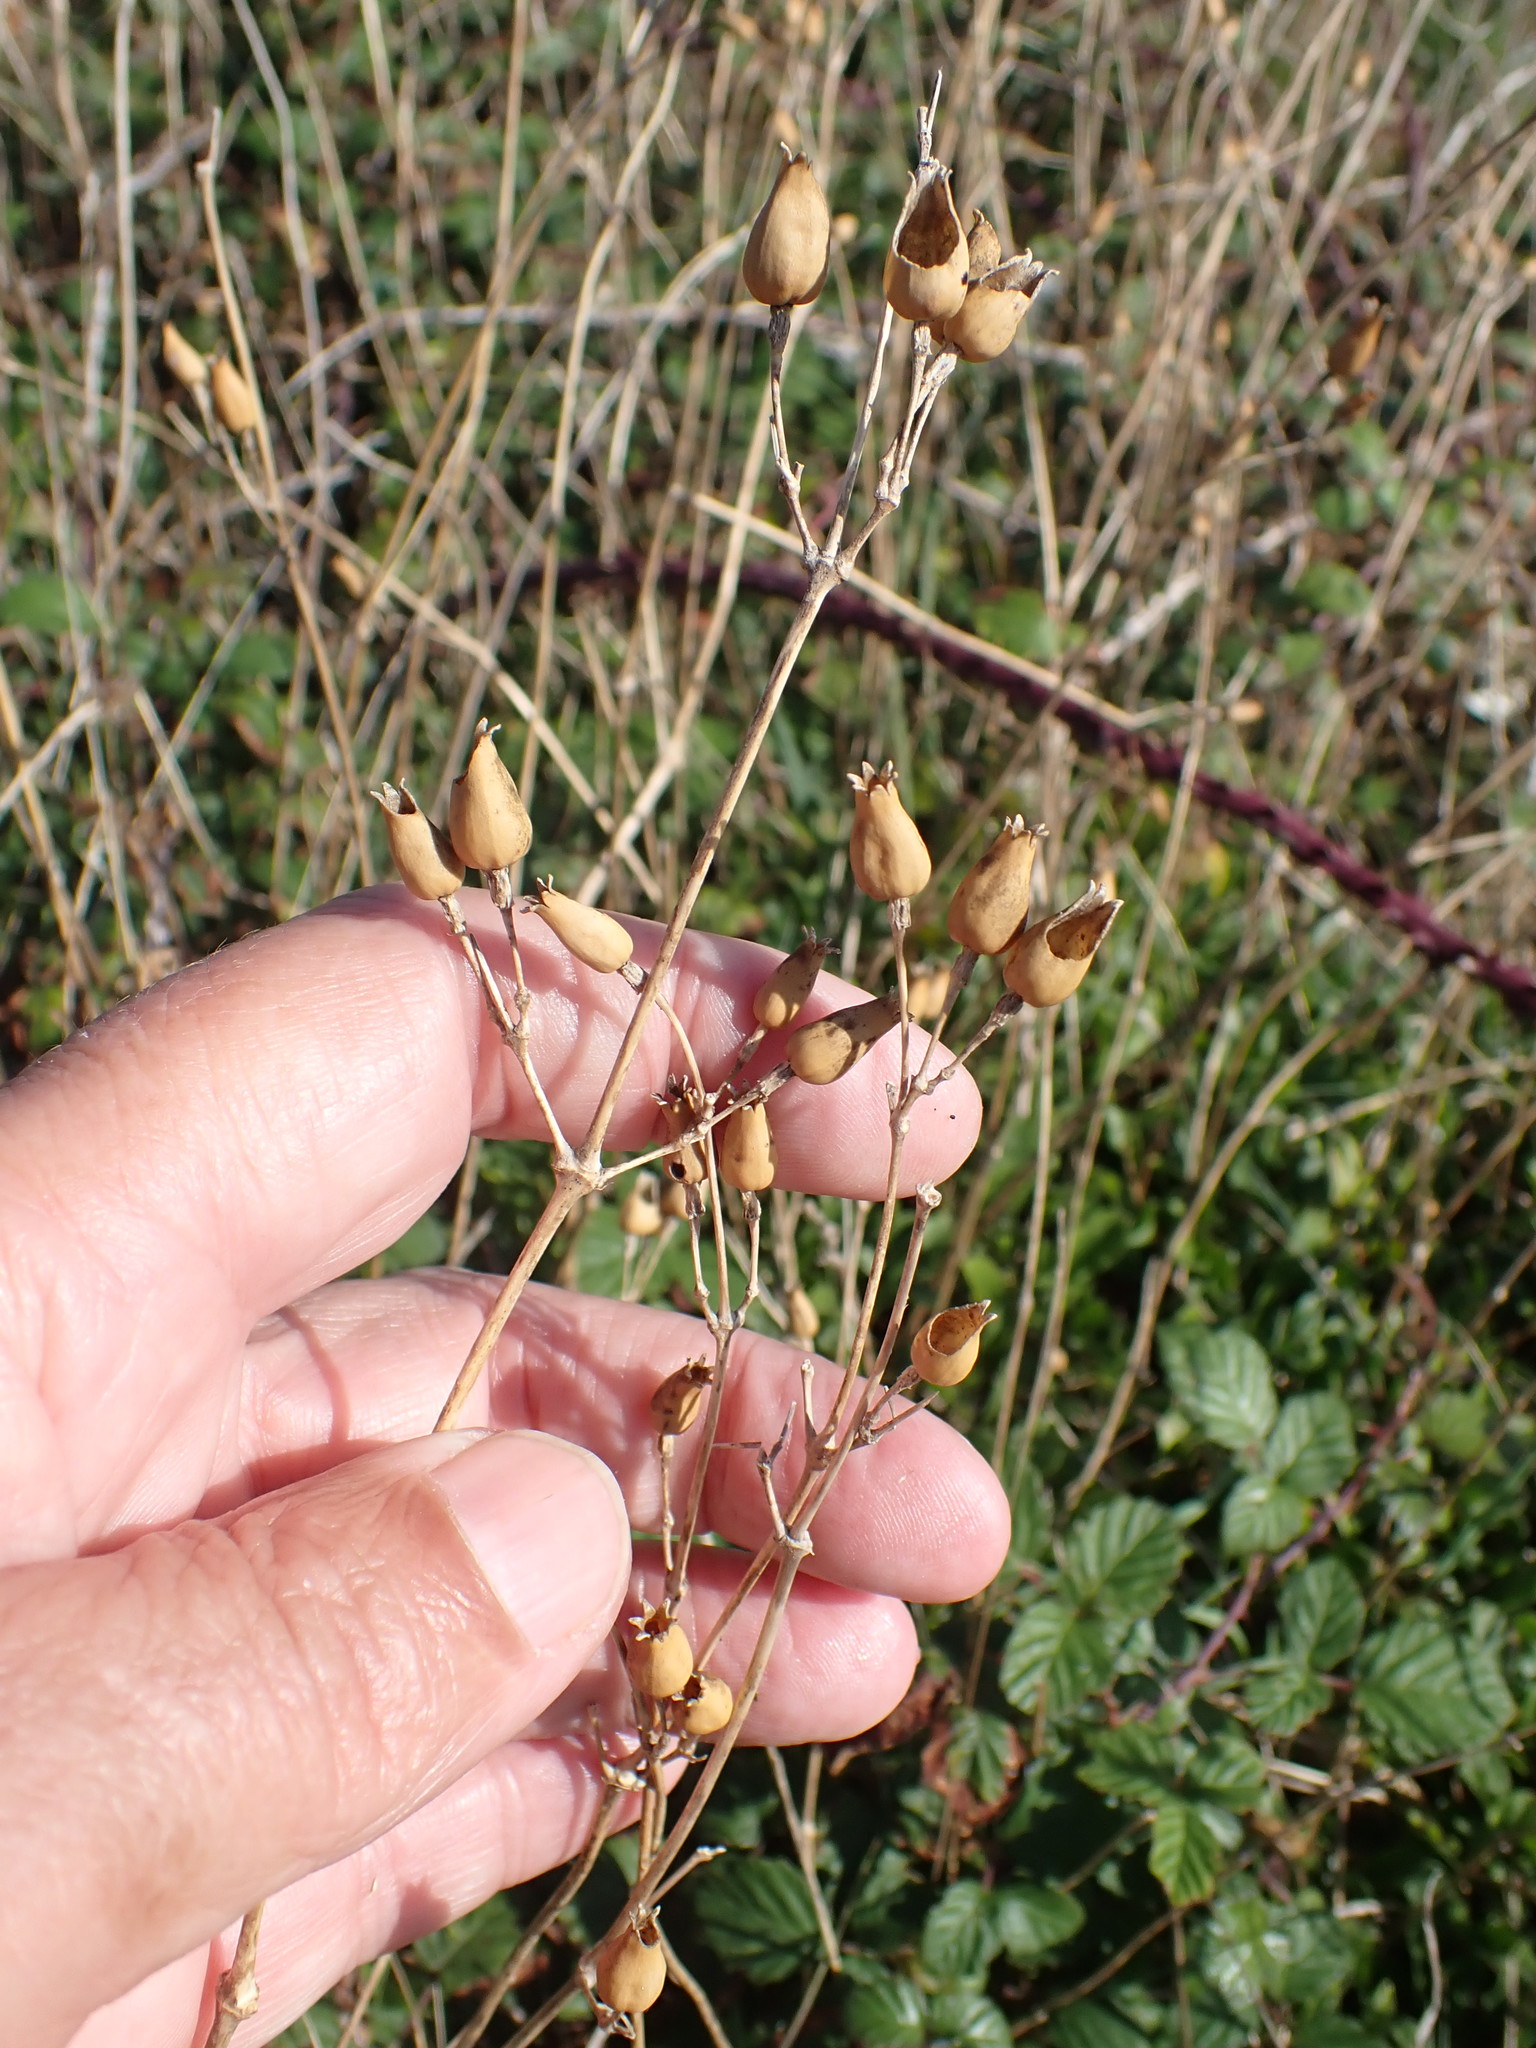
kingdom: Plantae
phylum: Tracheophyta
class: Magnoliopsida
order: Caryophyllales
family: Caryophyllaceae
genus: Silene
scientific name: Silene nutans
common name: Nottingham catchfly
